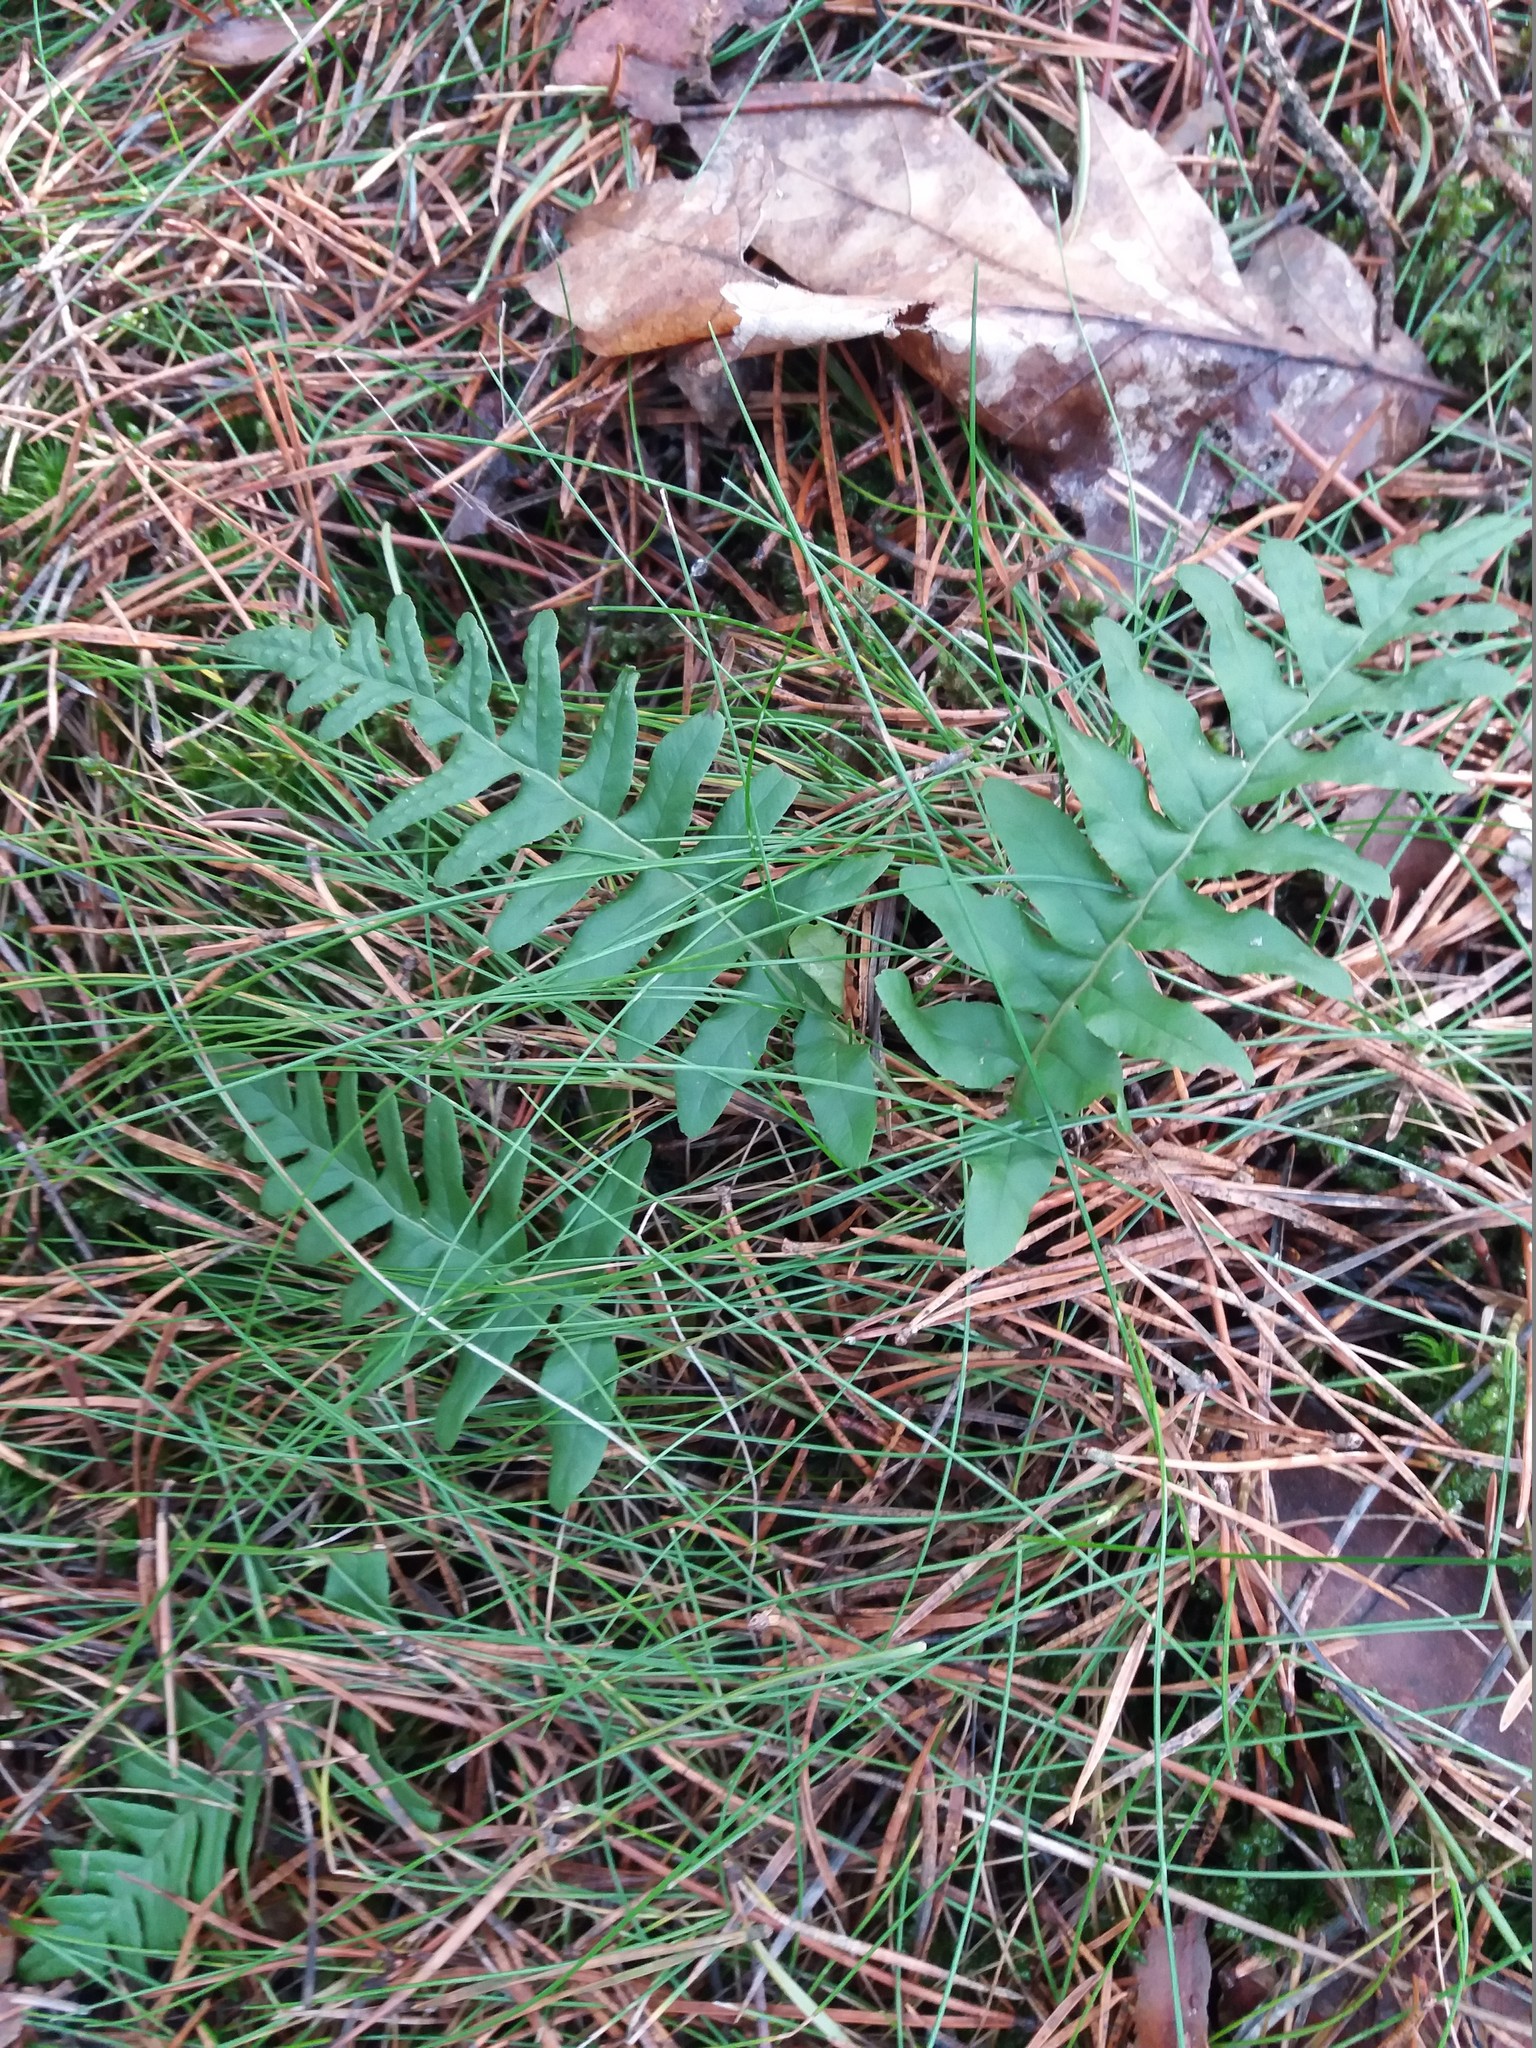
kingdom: Plantae
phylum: Tracheophyta
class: Polypodiopsida
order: Polypodiales
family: Polypodiaceae
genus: Polypodium
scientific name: Polypodium vulgare
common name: Common polypody
